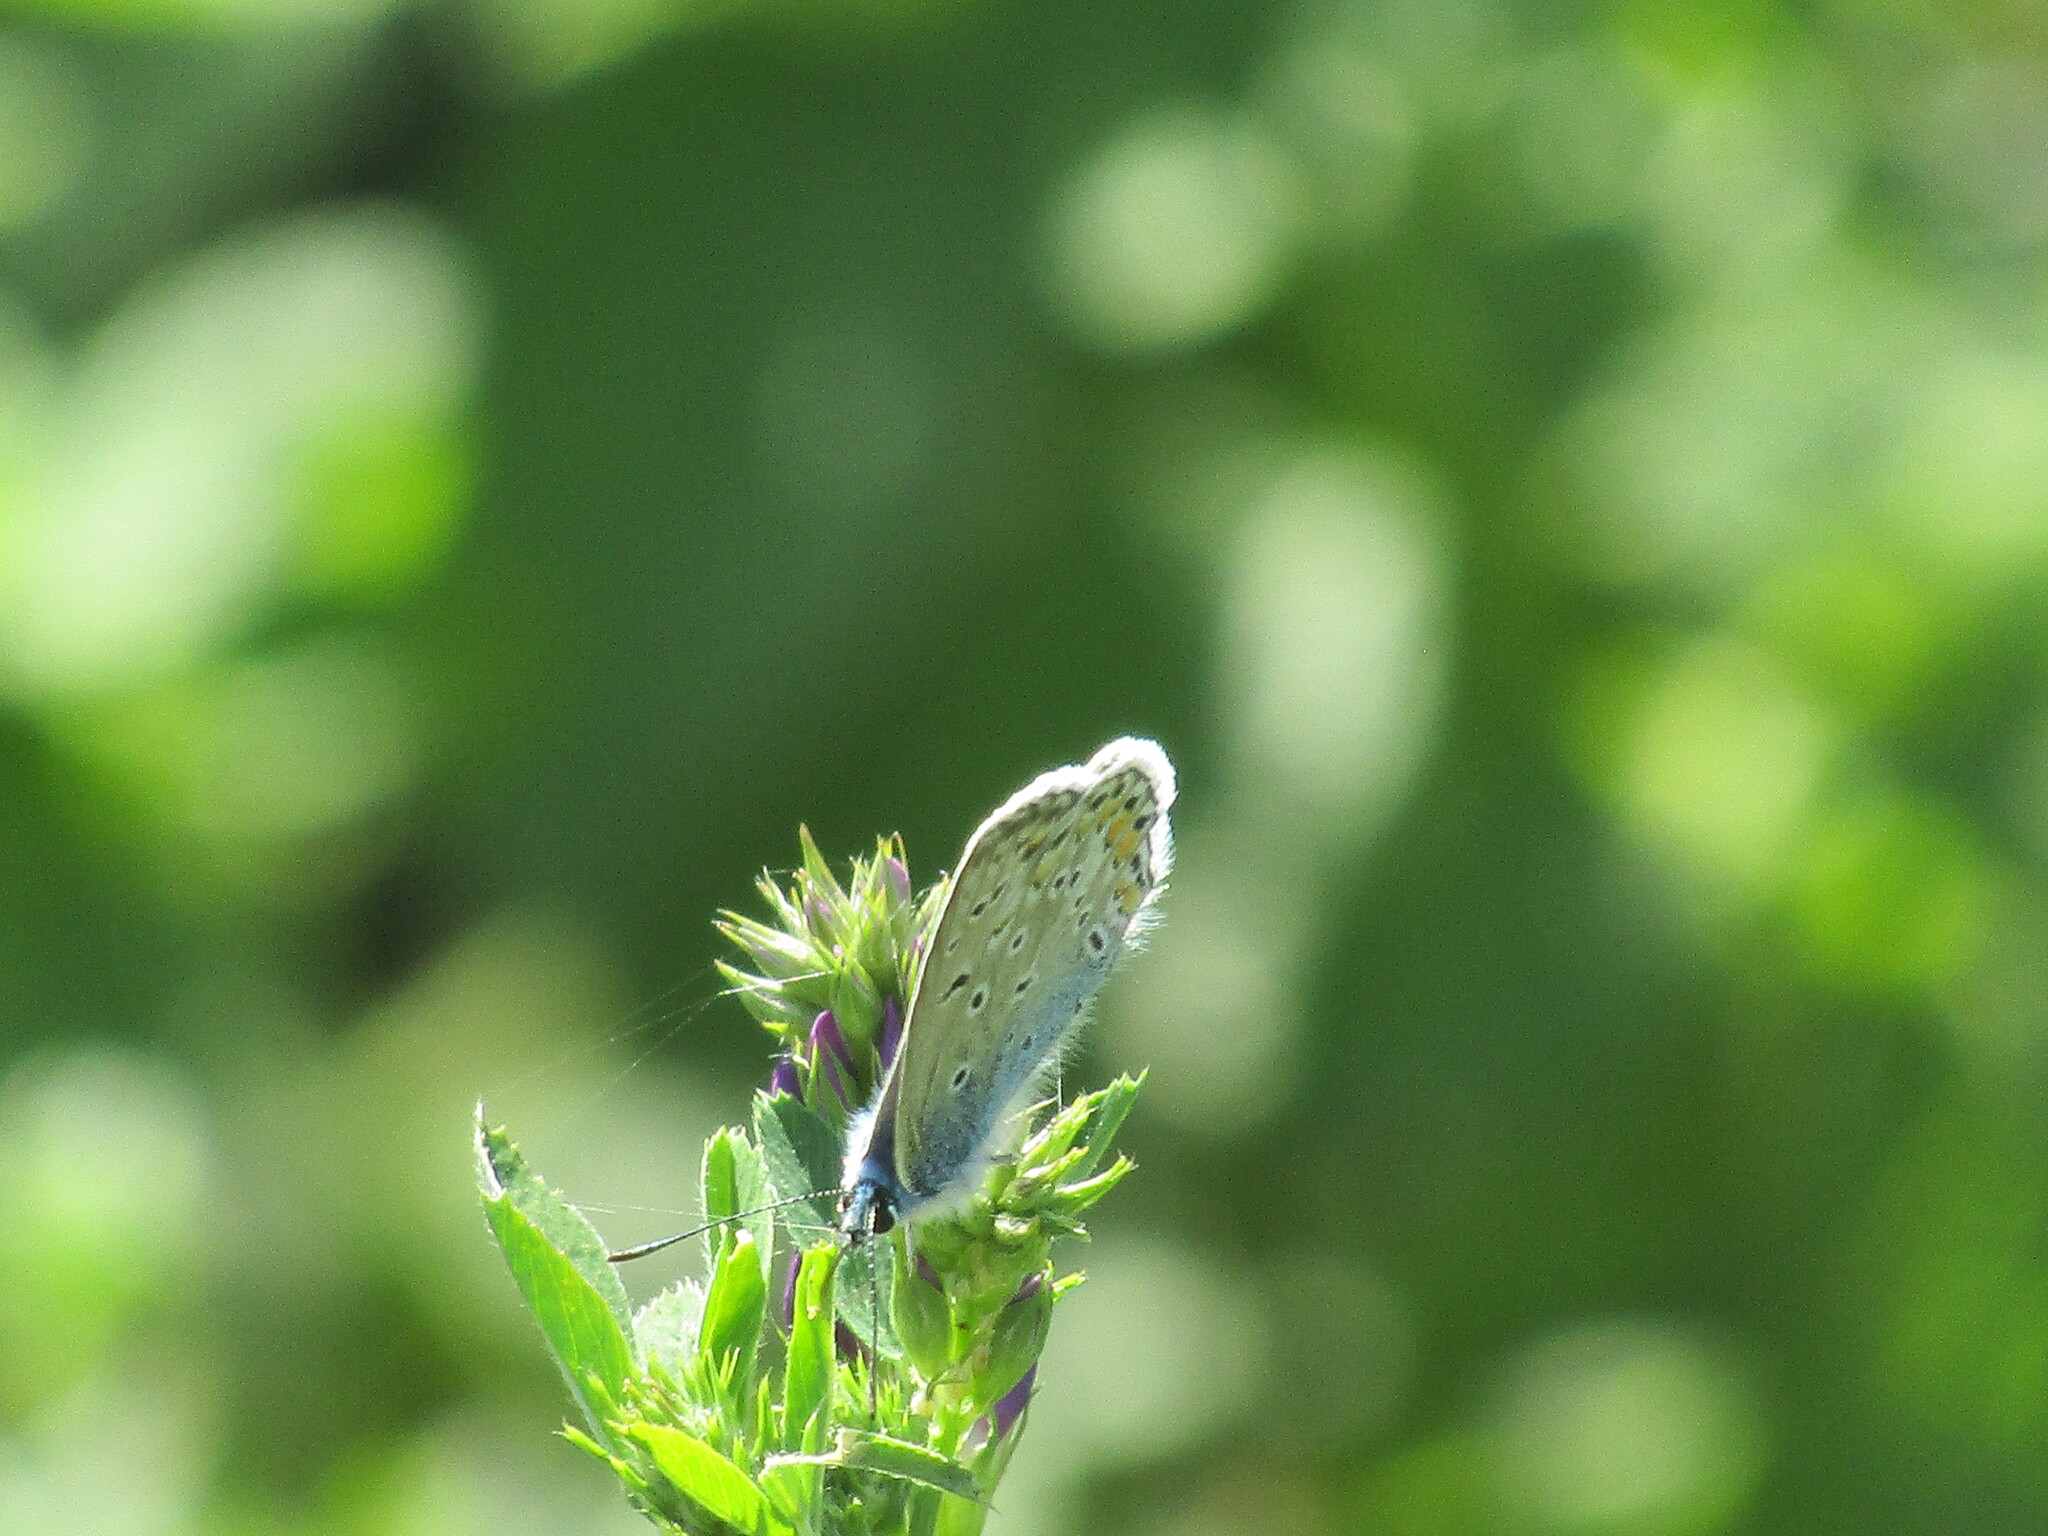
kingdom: Animalia
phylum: Arthropoda
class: Insecta
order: Lepidoptera
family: Lycaenidae
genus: Polyommatus
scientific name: Polyommatus icarus
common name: Common blue
